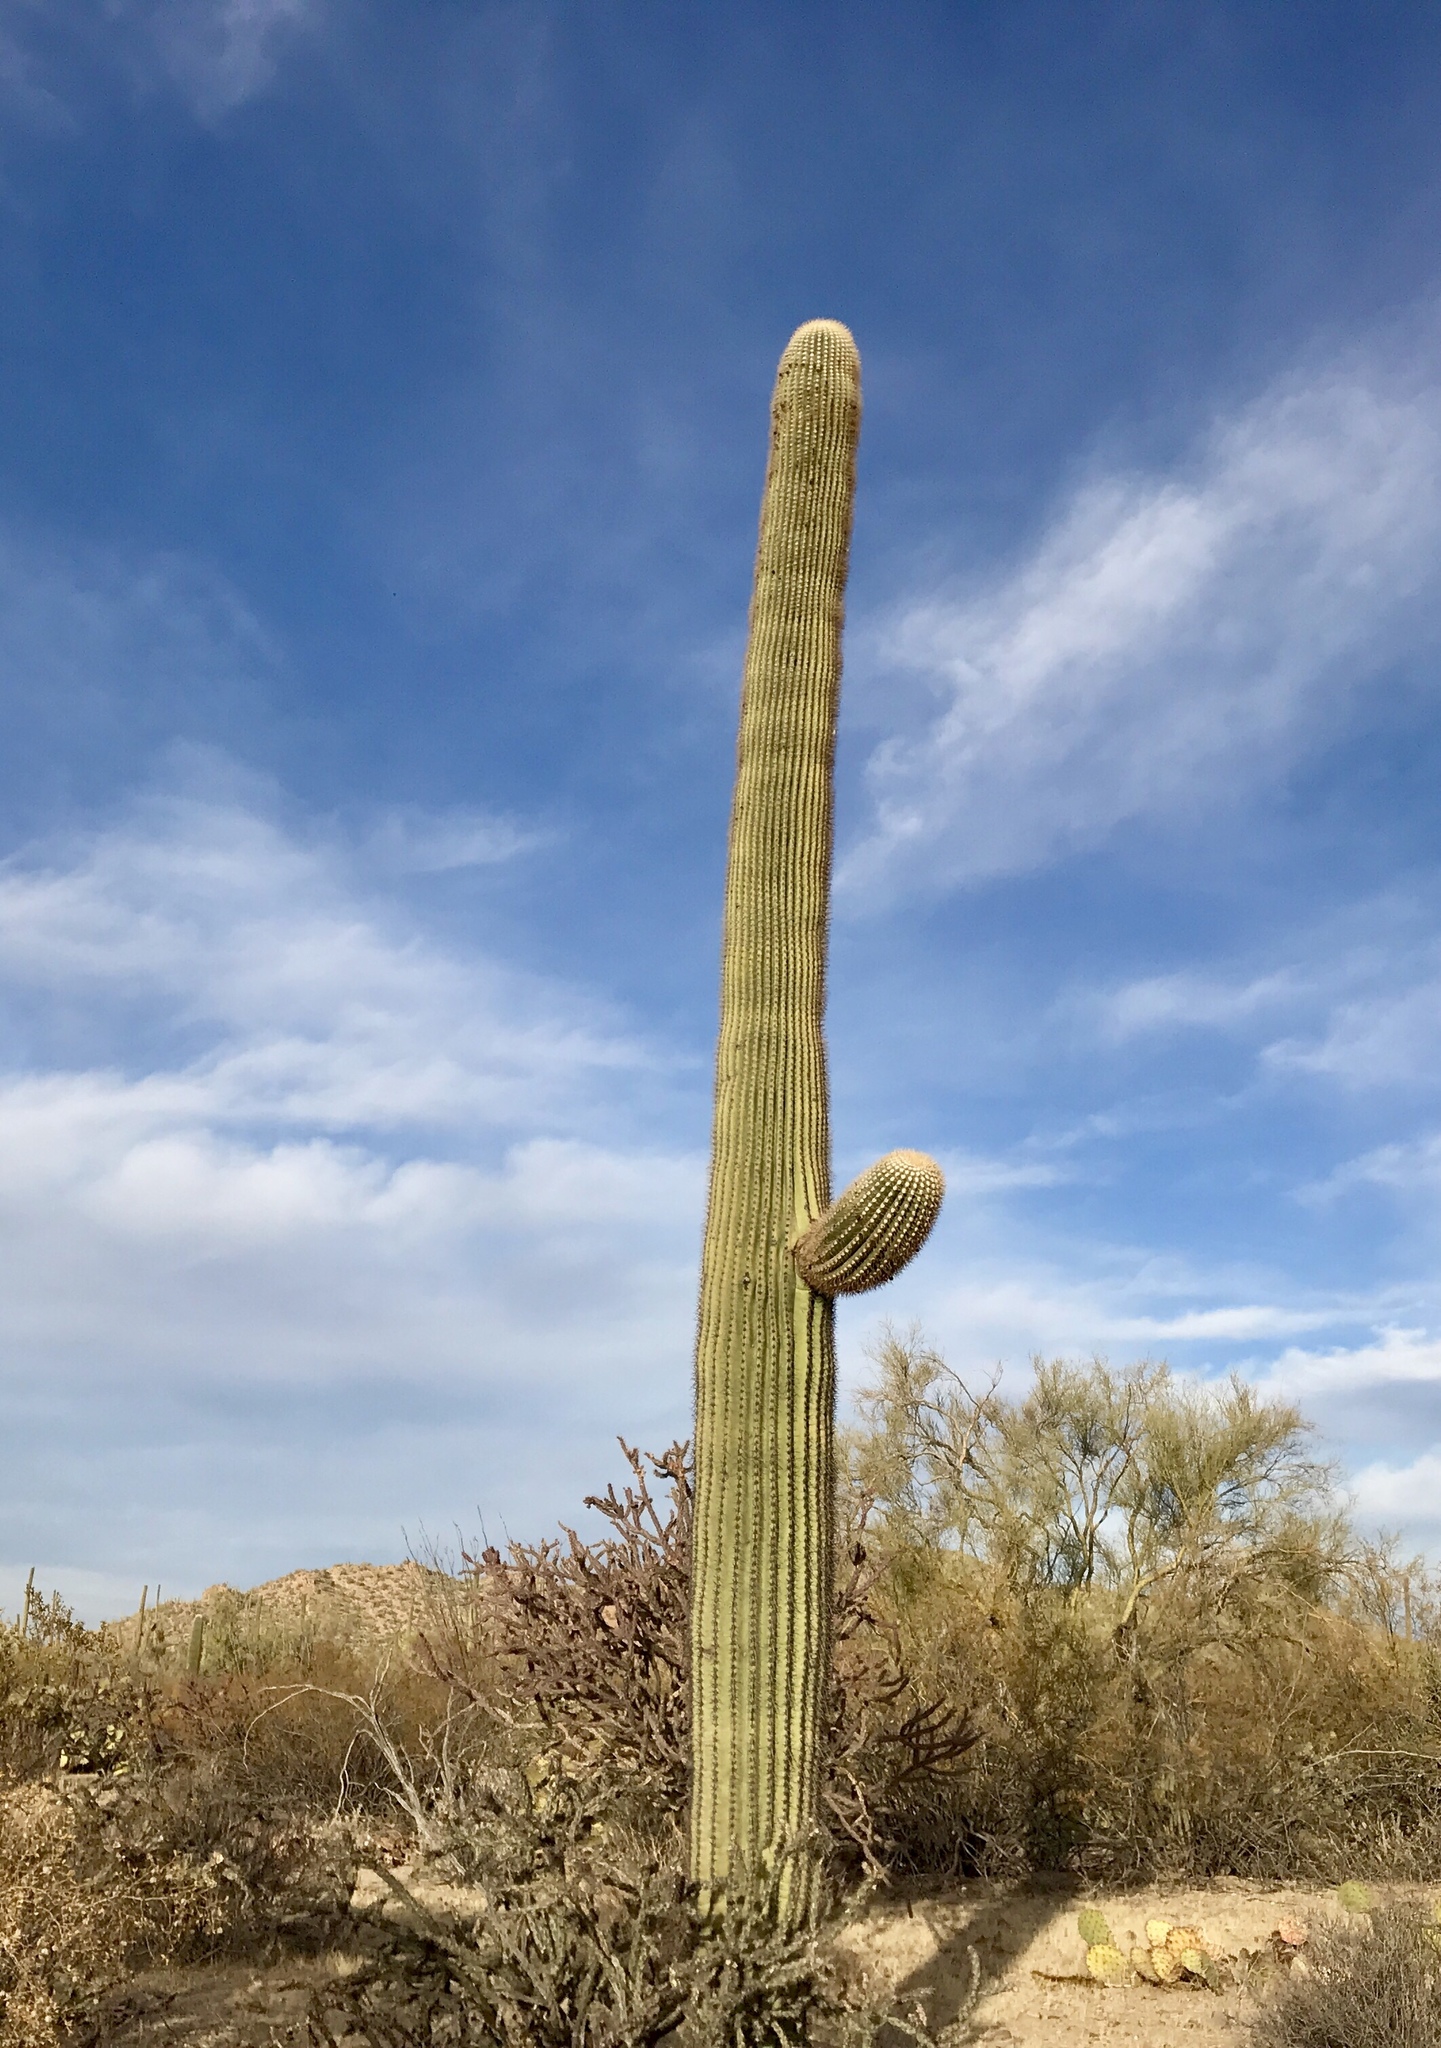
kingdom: Plantae
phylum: Tracheophyta
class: Magnoliopsida
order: Caryophyllales
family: Cactaceae
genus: Carnegiea
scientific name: Carnegiea gigantea
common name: Saguaro
